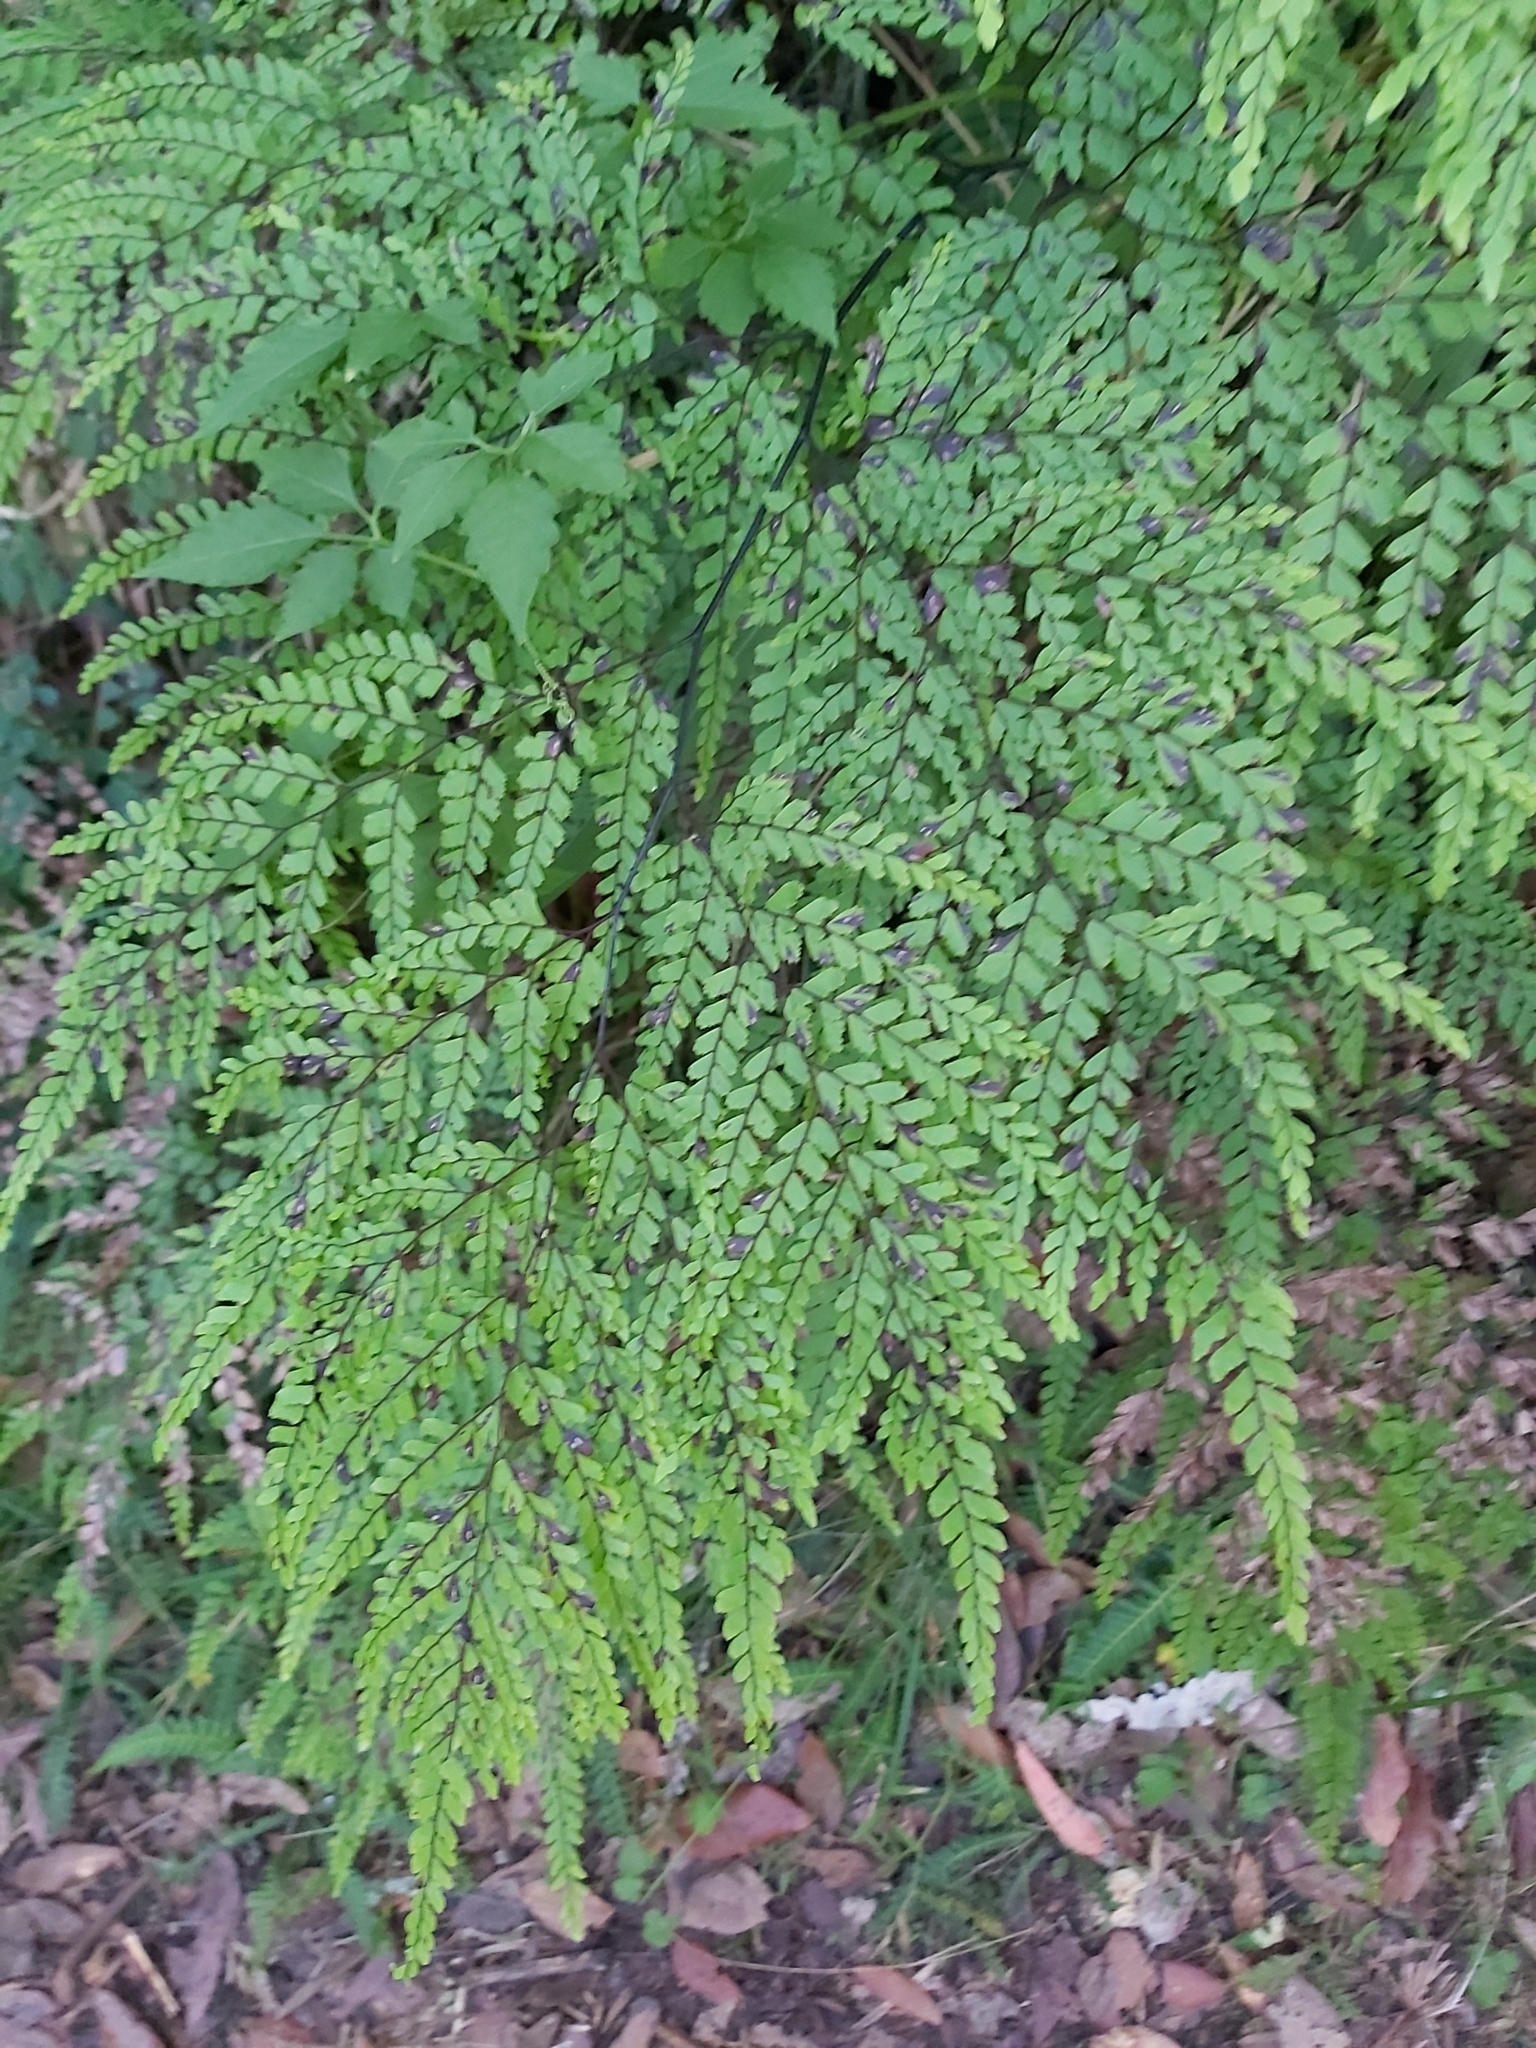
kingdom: Plantae
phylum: Tracheophyta
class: Polypodiopsida
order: Polypodiales
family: Pteridaceae
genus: Adiantum
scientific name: Adiantum formosum
